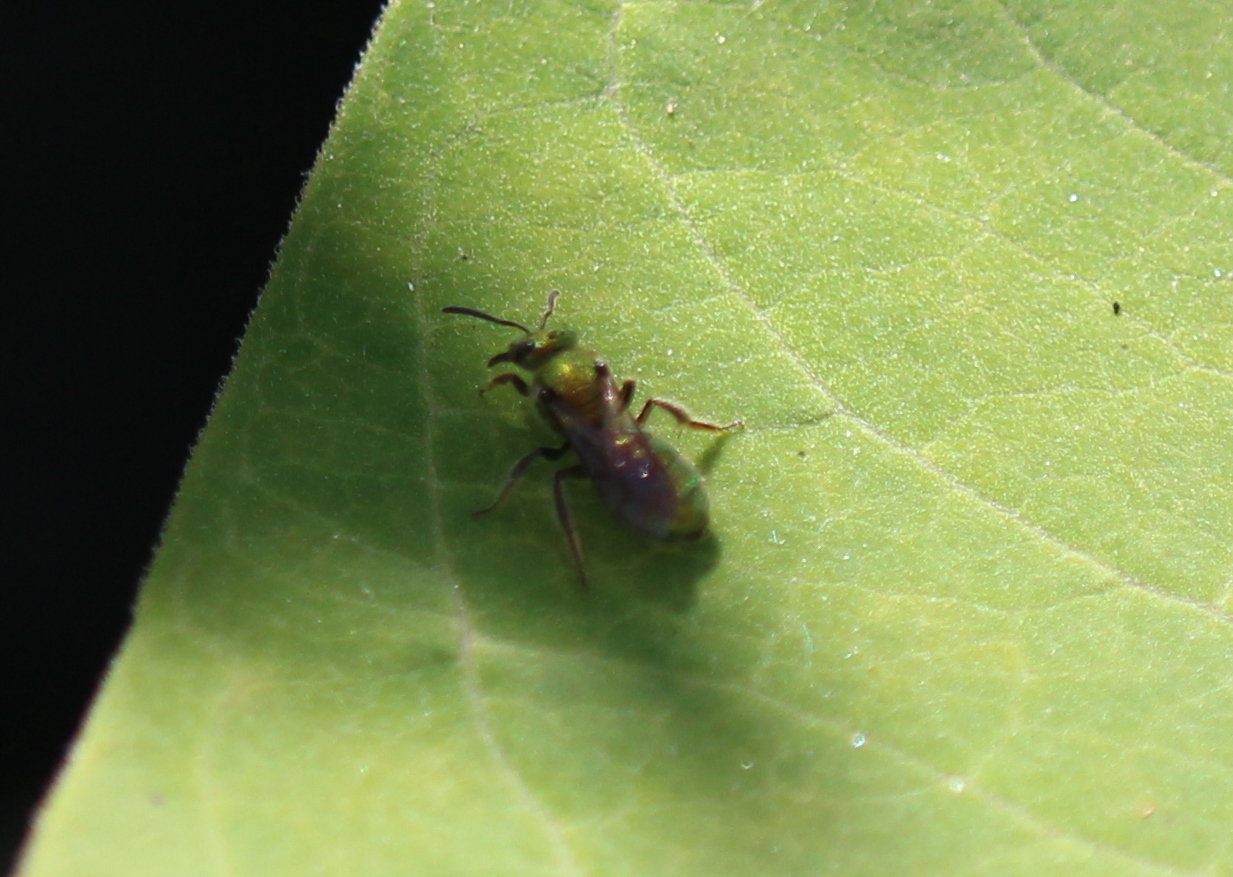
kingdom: Animalia
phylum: Arthropoda
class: Insecta
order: Hymenoptera
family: Halictidae
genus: Augochlorella
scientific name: Augochlorella aurata
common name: Golden sweat bee
